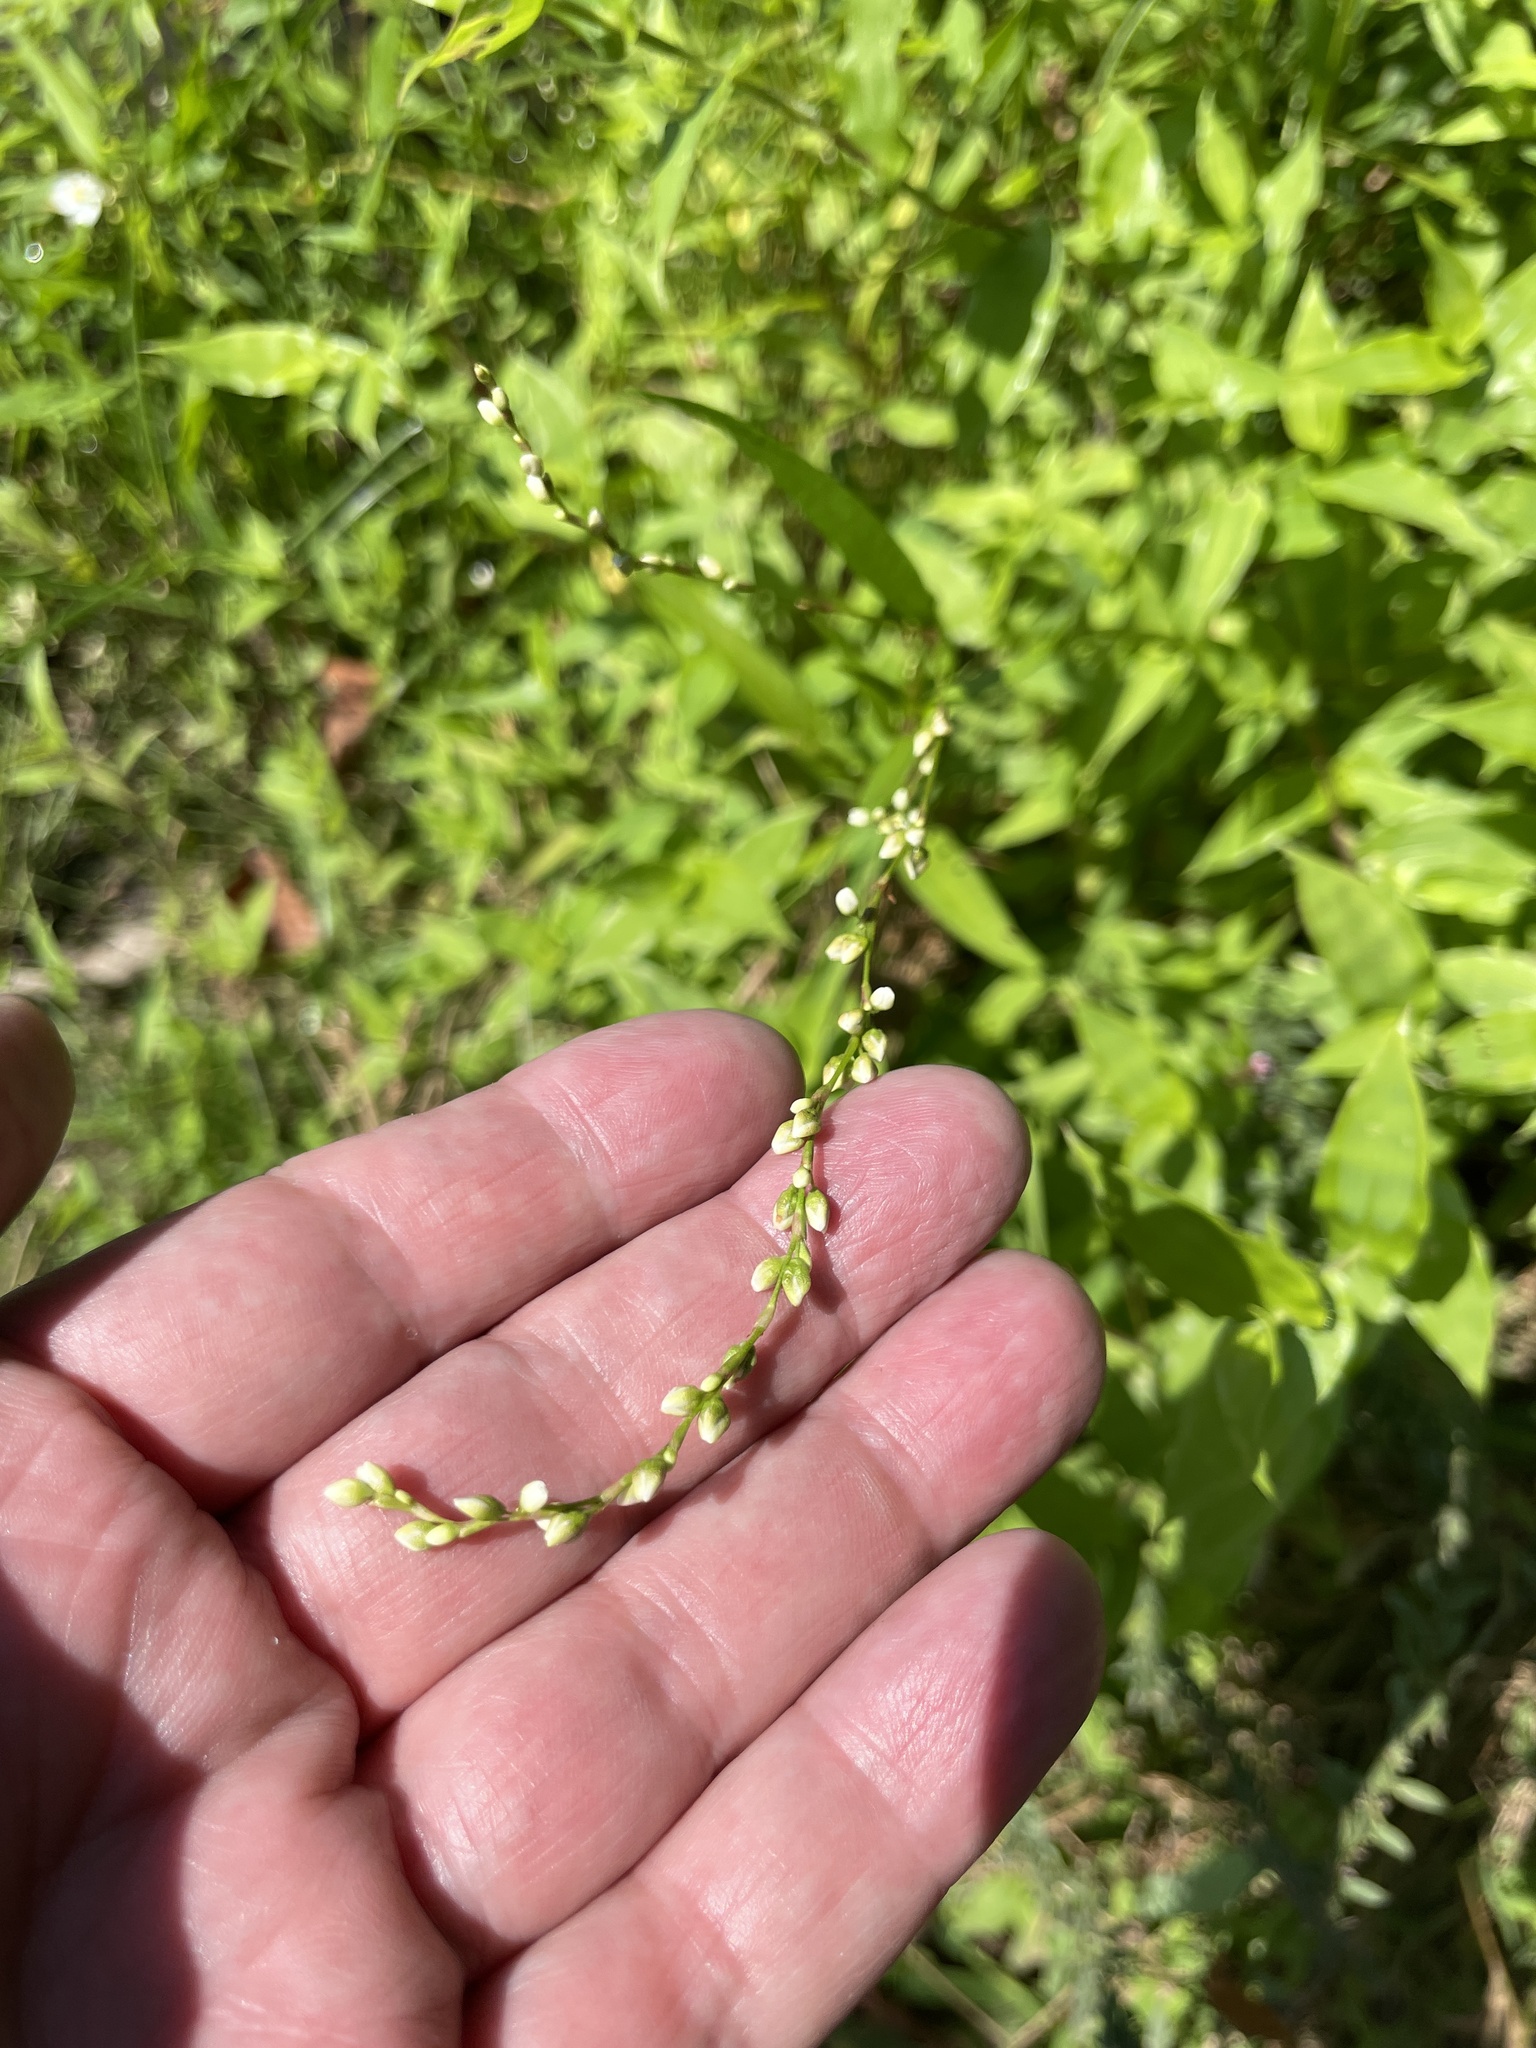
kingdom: Plantae
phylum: Tracheophyta
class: Magnoliopsida
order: Caryophyllales
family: Polygonaceae
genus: Persicaria
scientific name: Persicaria punctata
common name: Dotted smartweed
